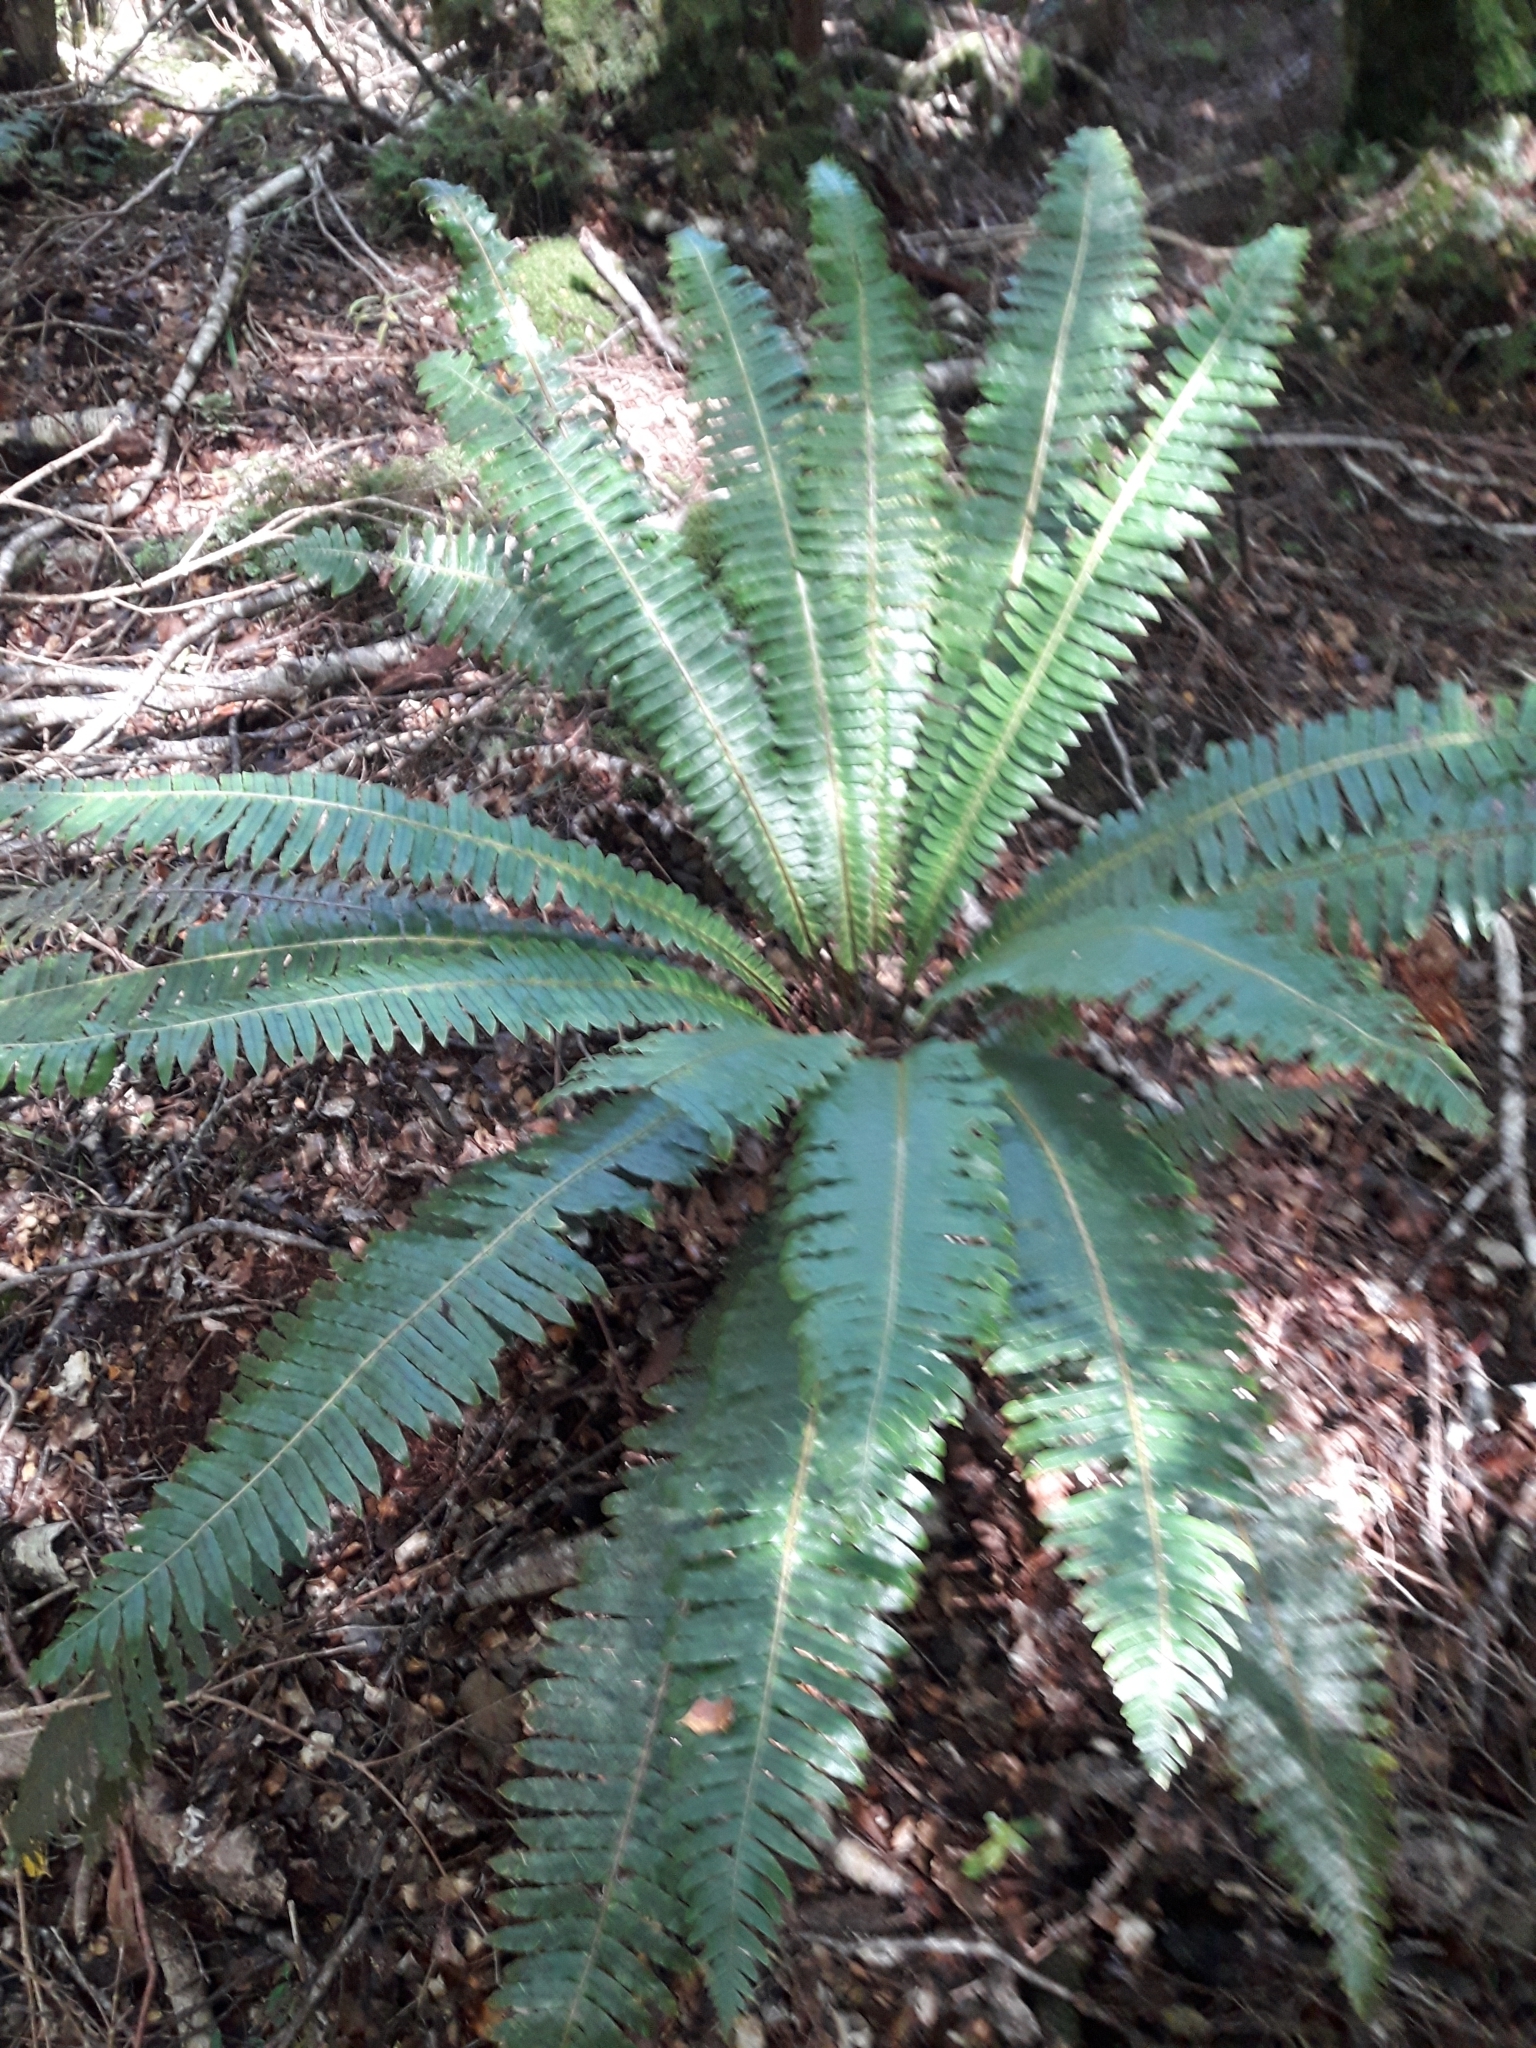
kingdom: Plantae
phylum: Tracheophyta
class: Polypodiopsida
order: Polypodiales
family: Blechnaceae
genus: Lomaria
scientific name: Lomaria discolor
